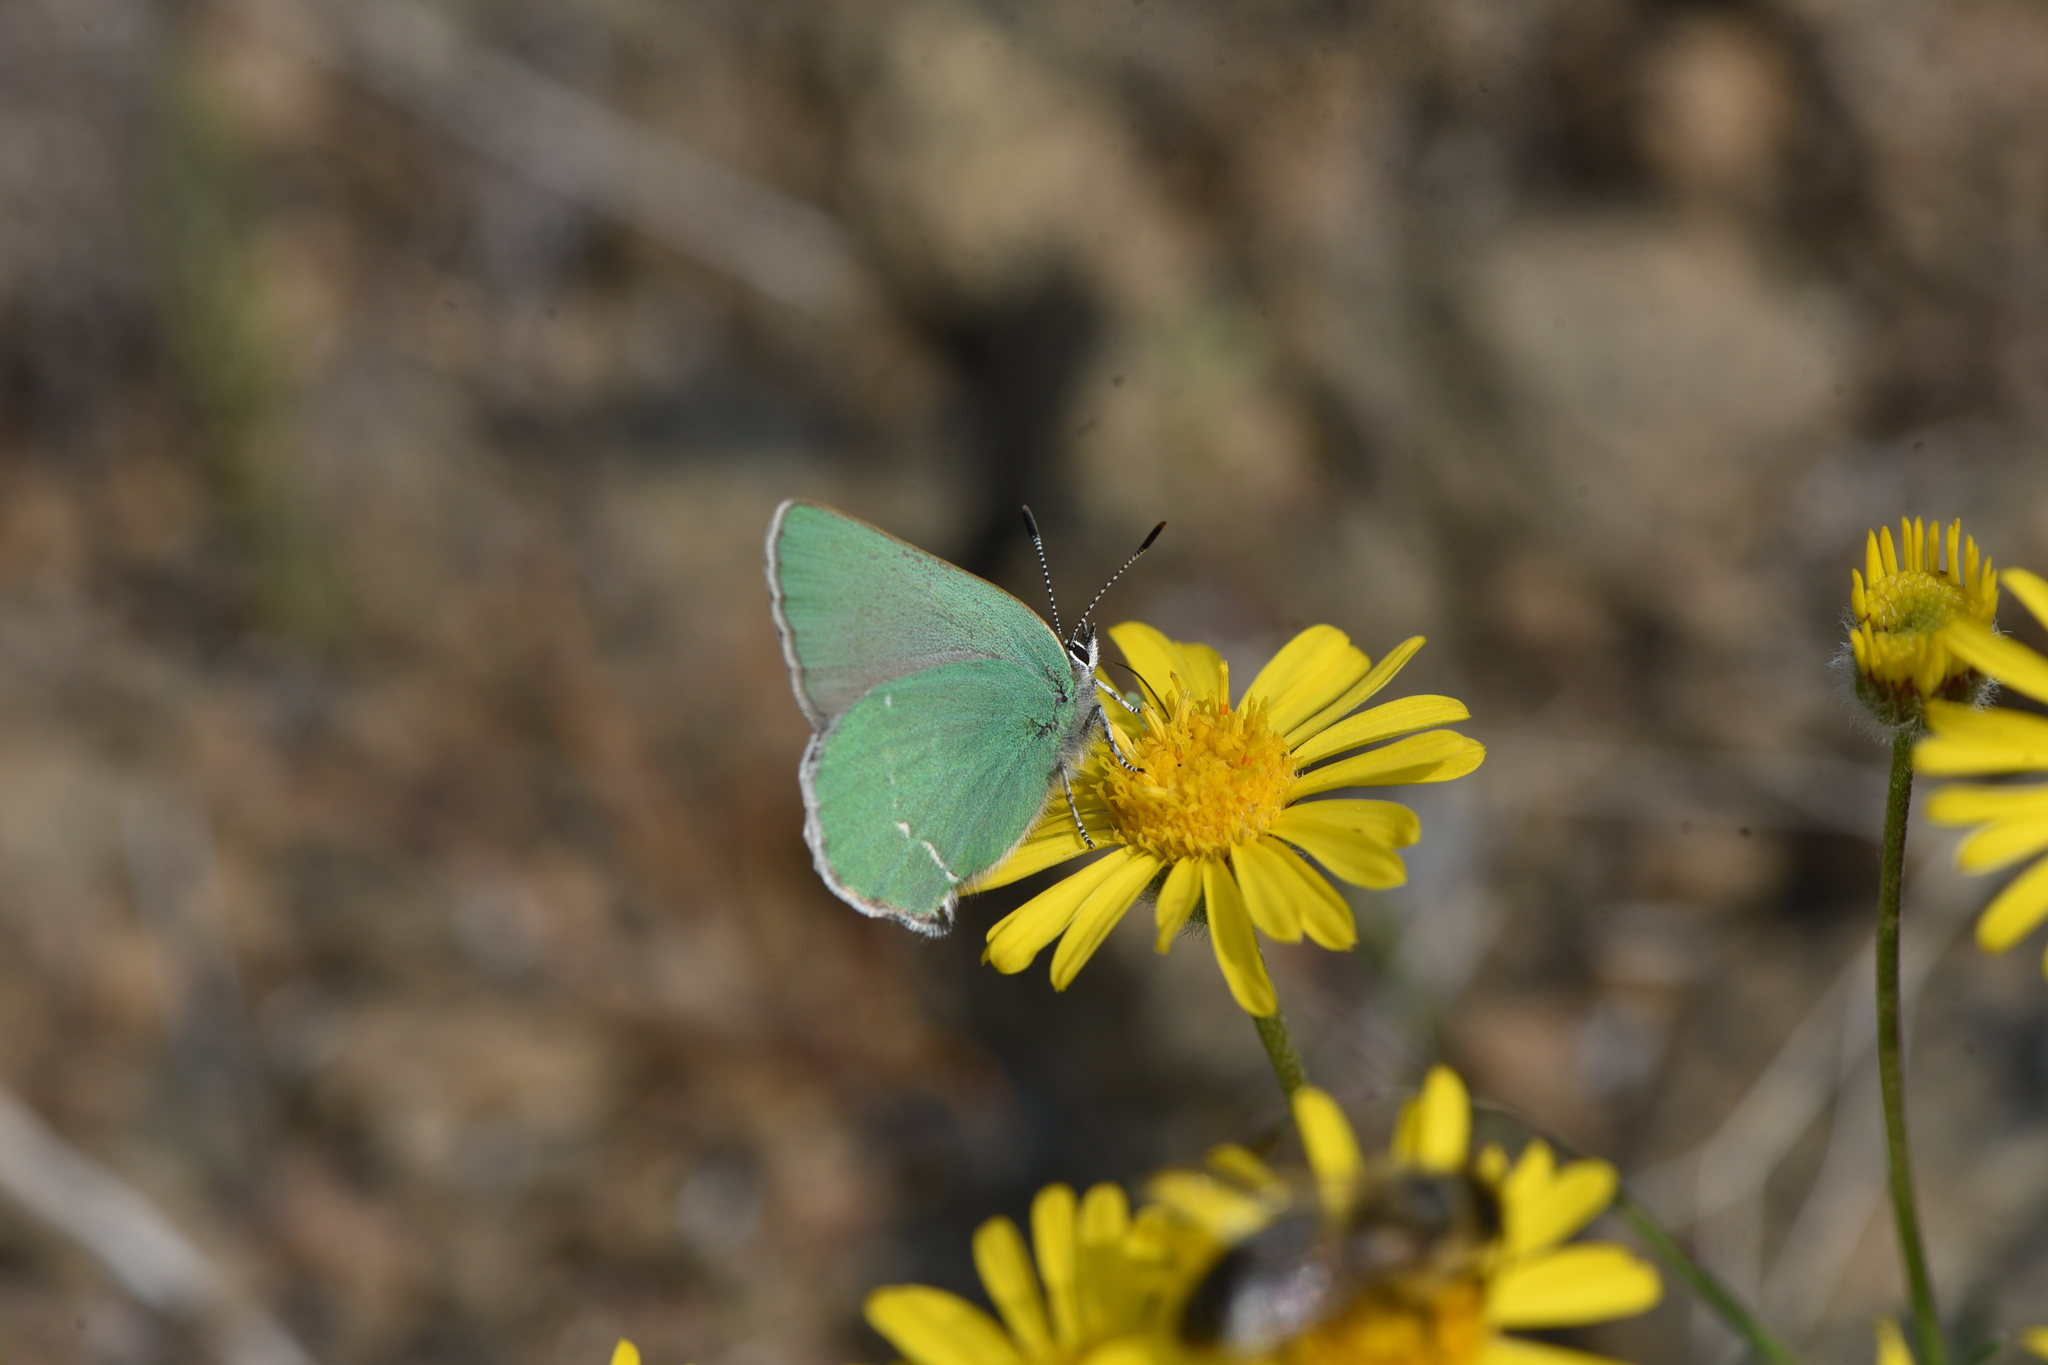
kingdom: Animalia
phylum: Arthropoda
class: Insecta
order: Lepidoptera
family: Lycaenidae
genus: Callophrys
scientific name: Callophrys affinis
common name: Western green hairstreak
